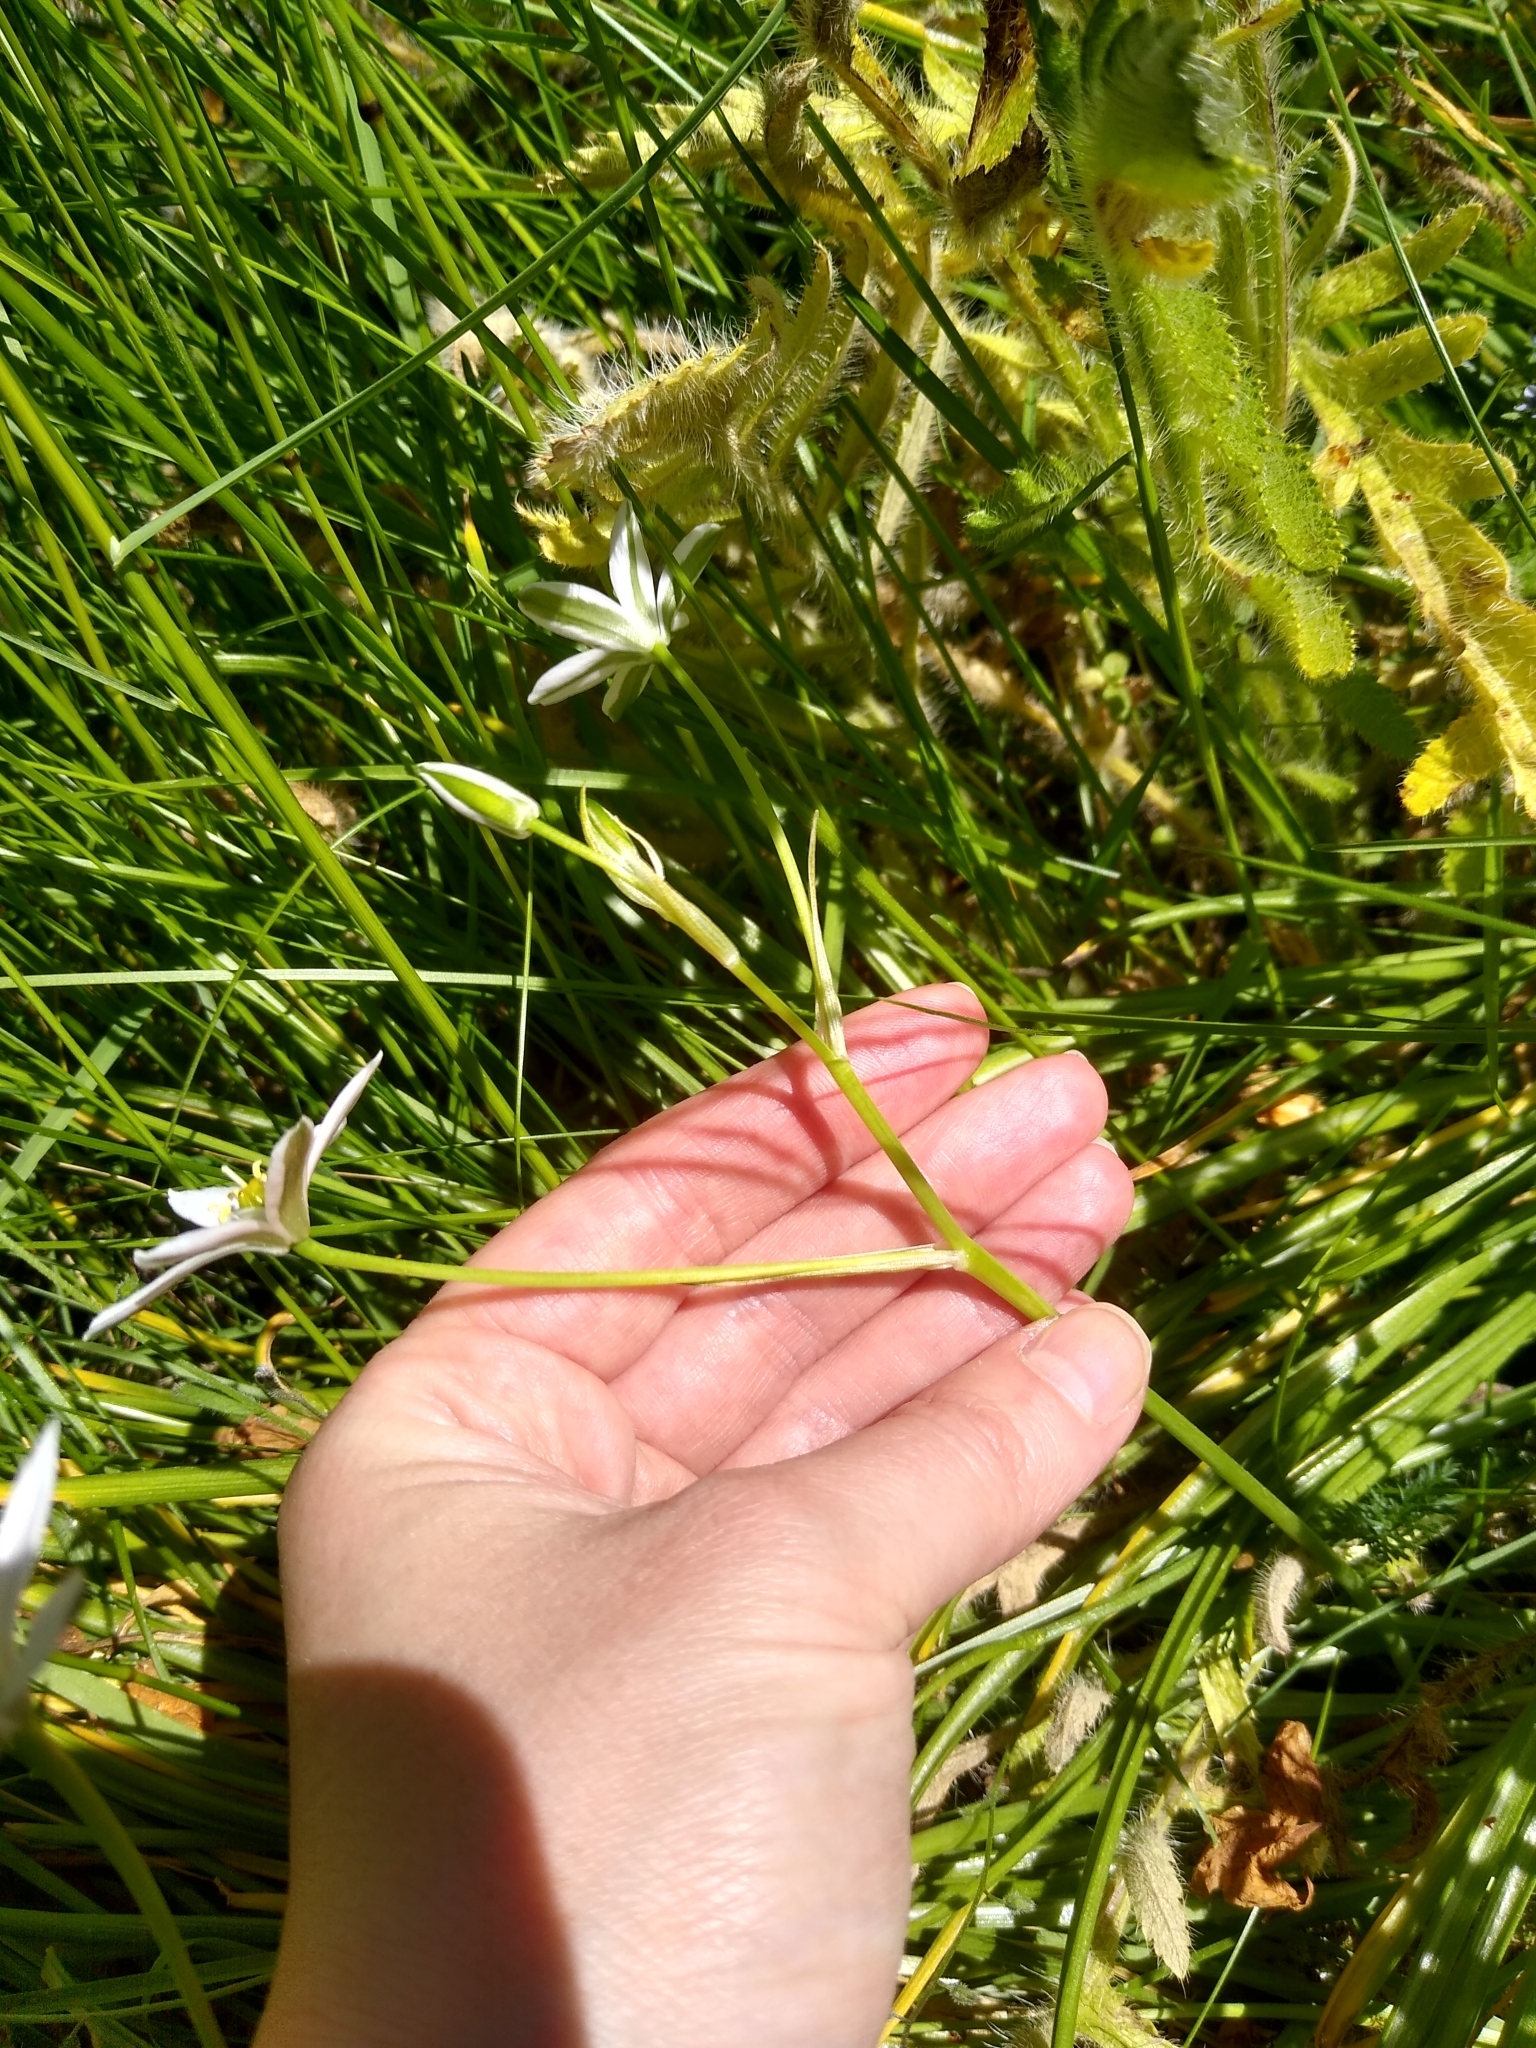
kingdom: Plantae
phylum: Tracheophyta
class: Liliopsida
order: Asparagales
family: Asparagaceae
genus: Ornithogalum
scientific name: Ornithogalum umbellatum
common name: Garden star-of-bethlehem
